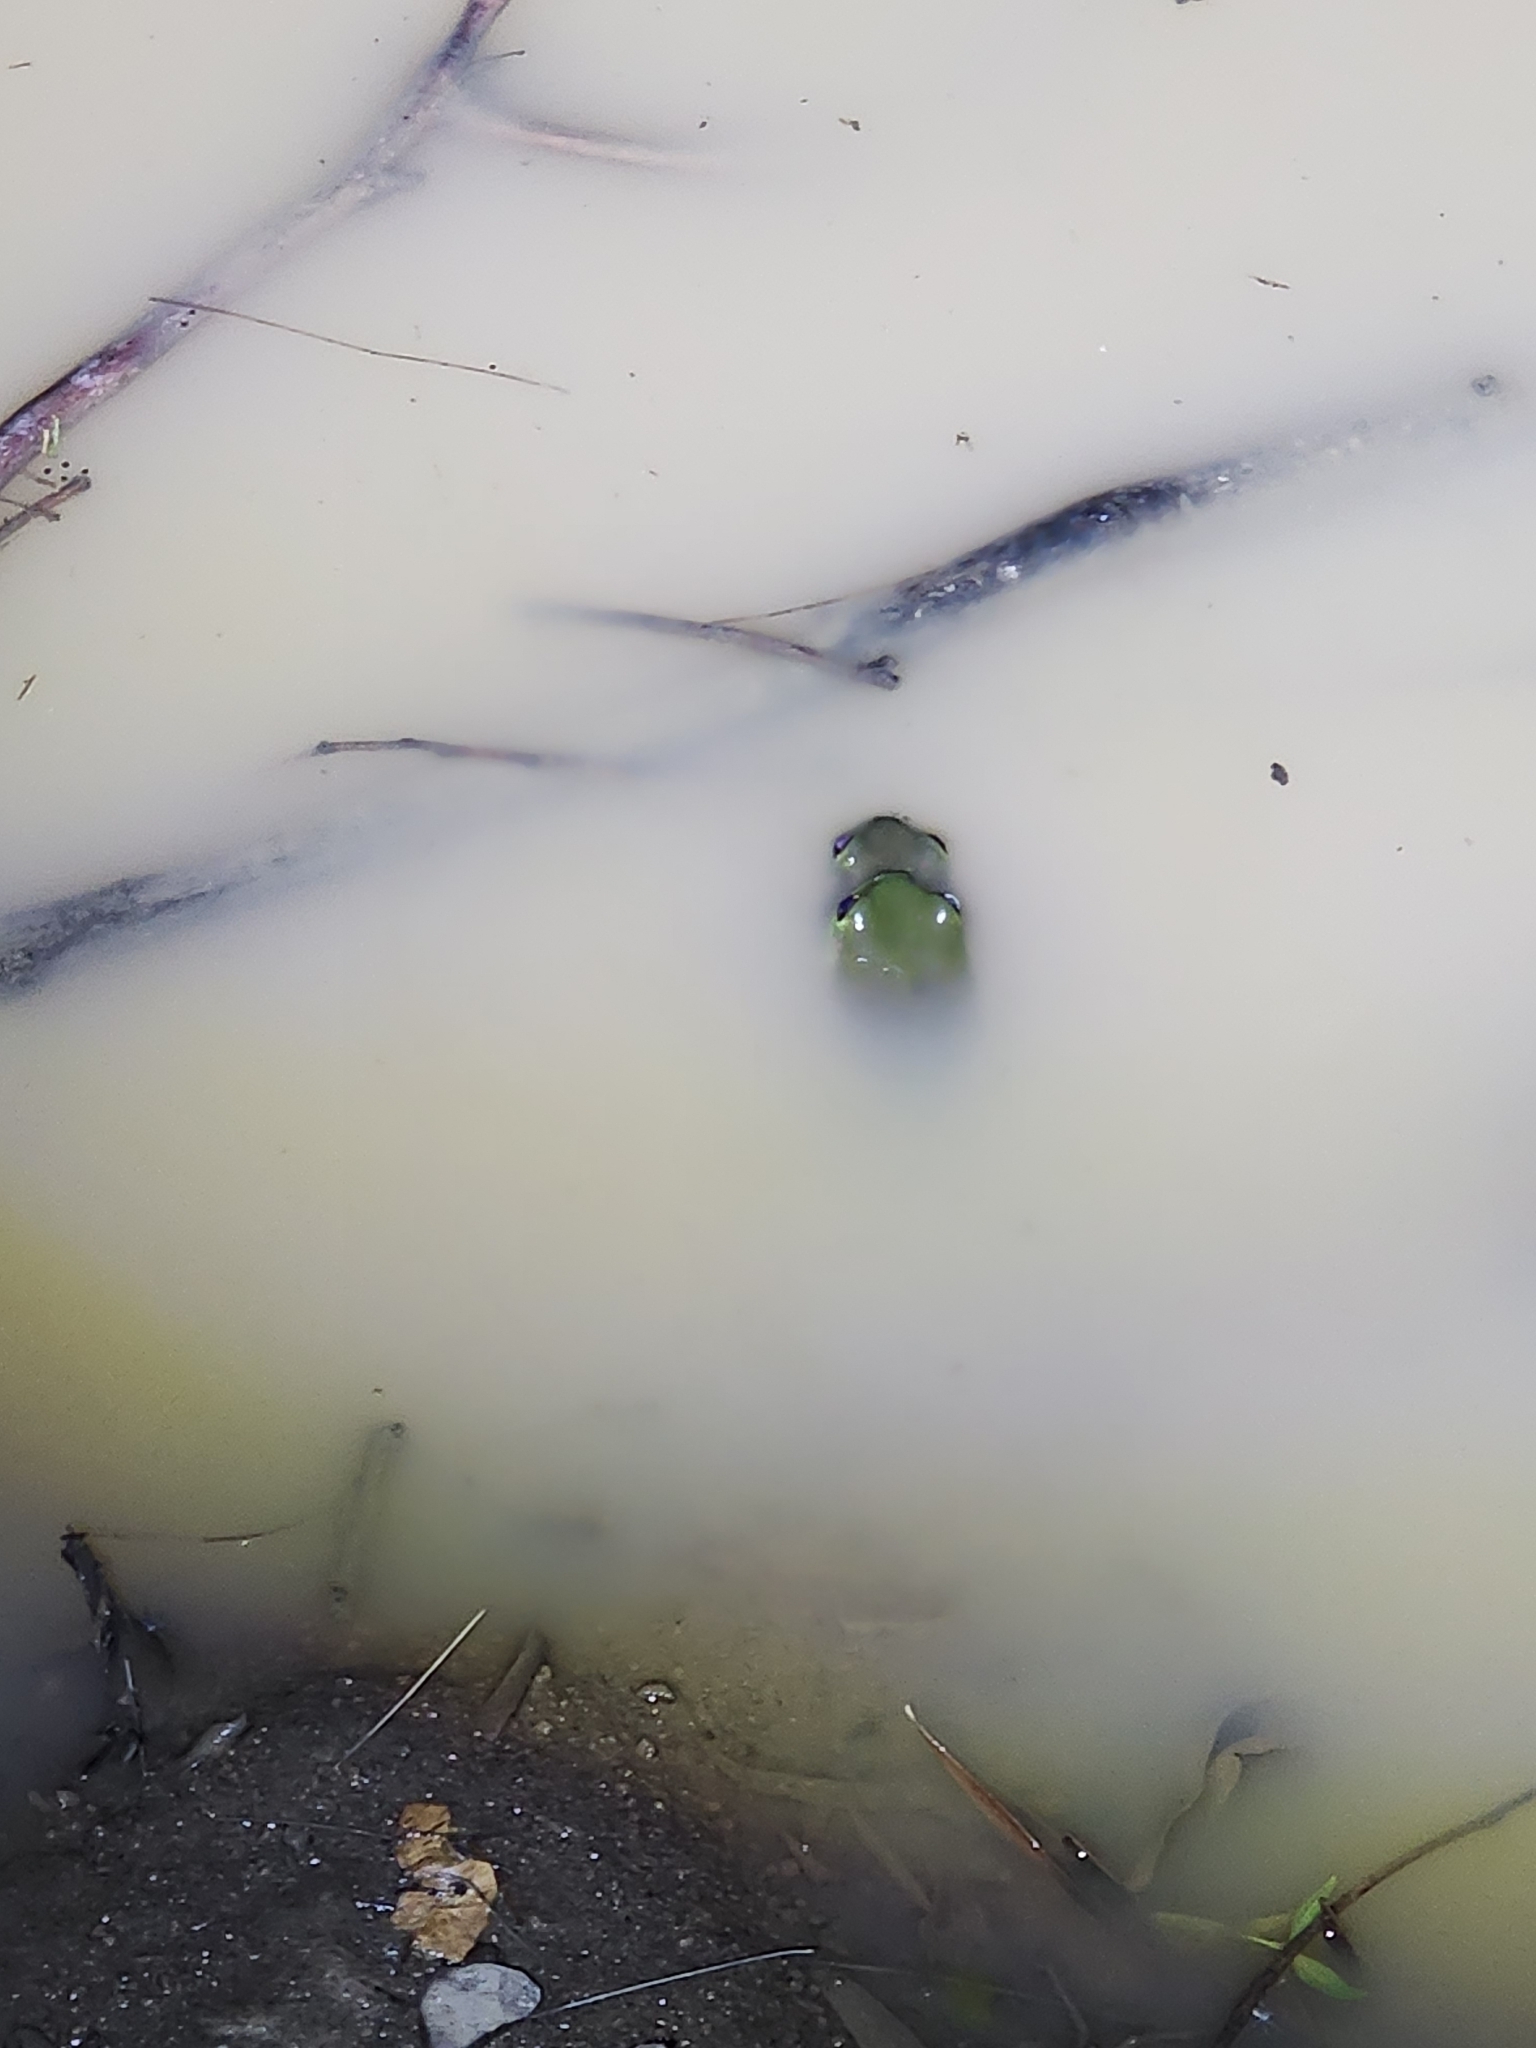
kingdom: Animalia
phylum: Chordata
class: Amphibia
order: Anura
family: Pelodryadidae
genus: Ranoidea
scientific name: Ranoidea caerulea
